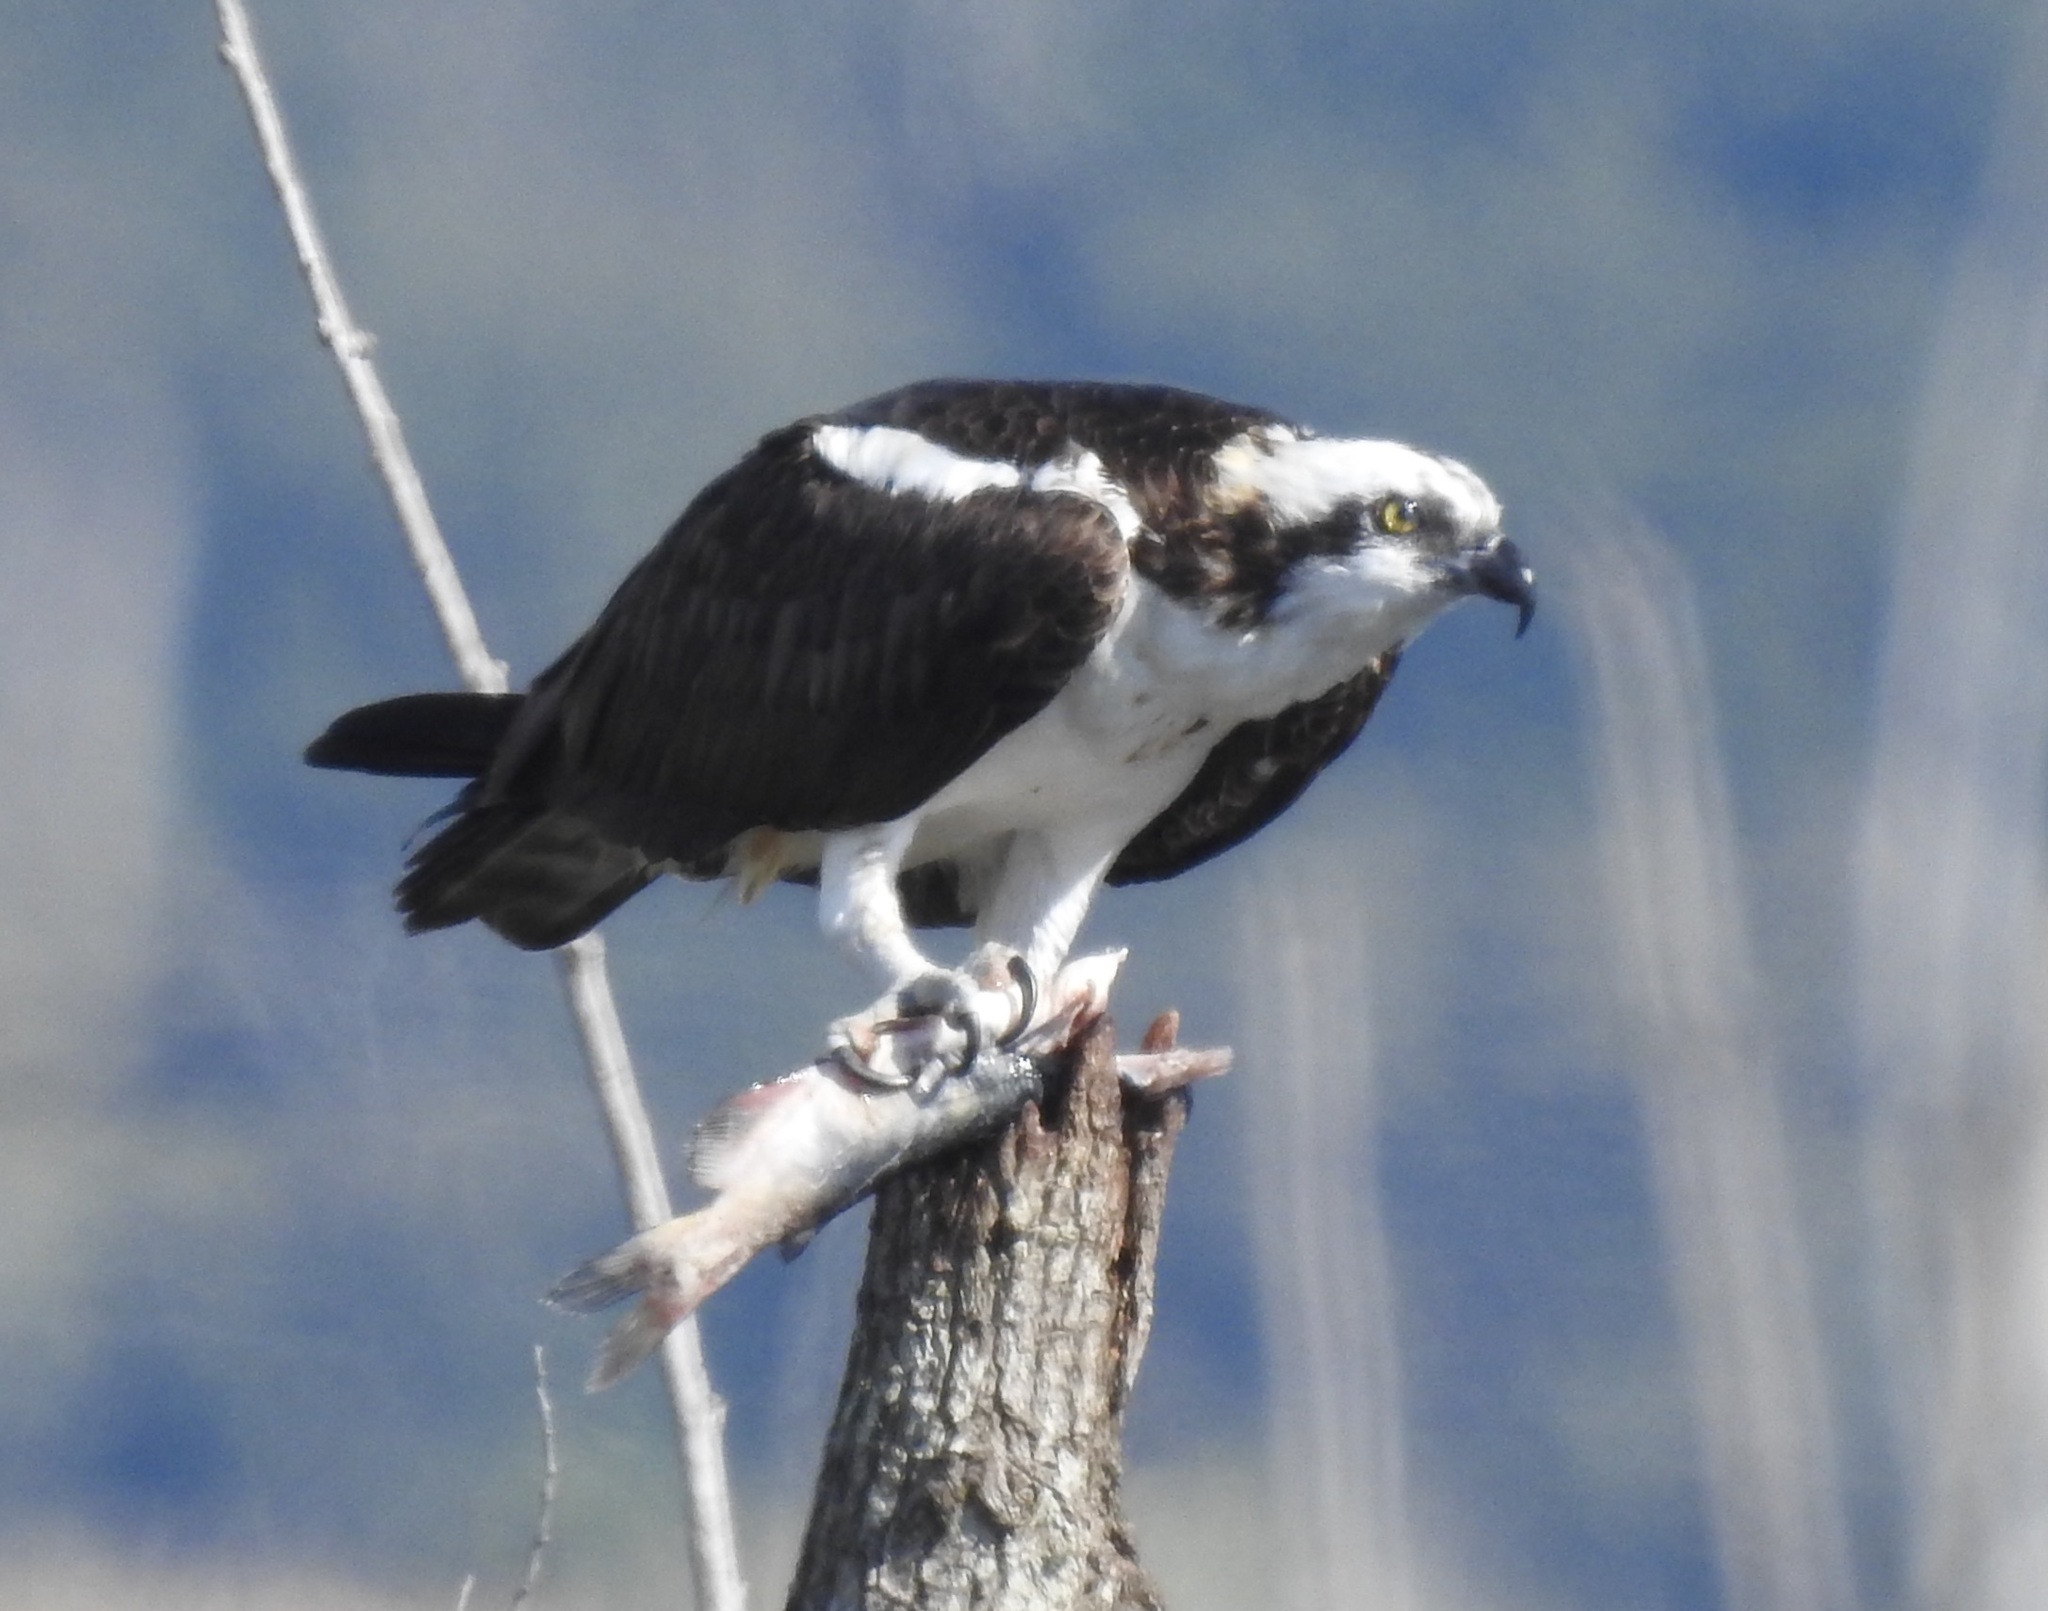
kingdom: Animalia
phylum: Chordata
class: Aves
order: Accipitriformes
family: Pandionidae
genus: Pandion
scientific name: Pandion haliaetus
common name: Osprey
